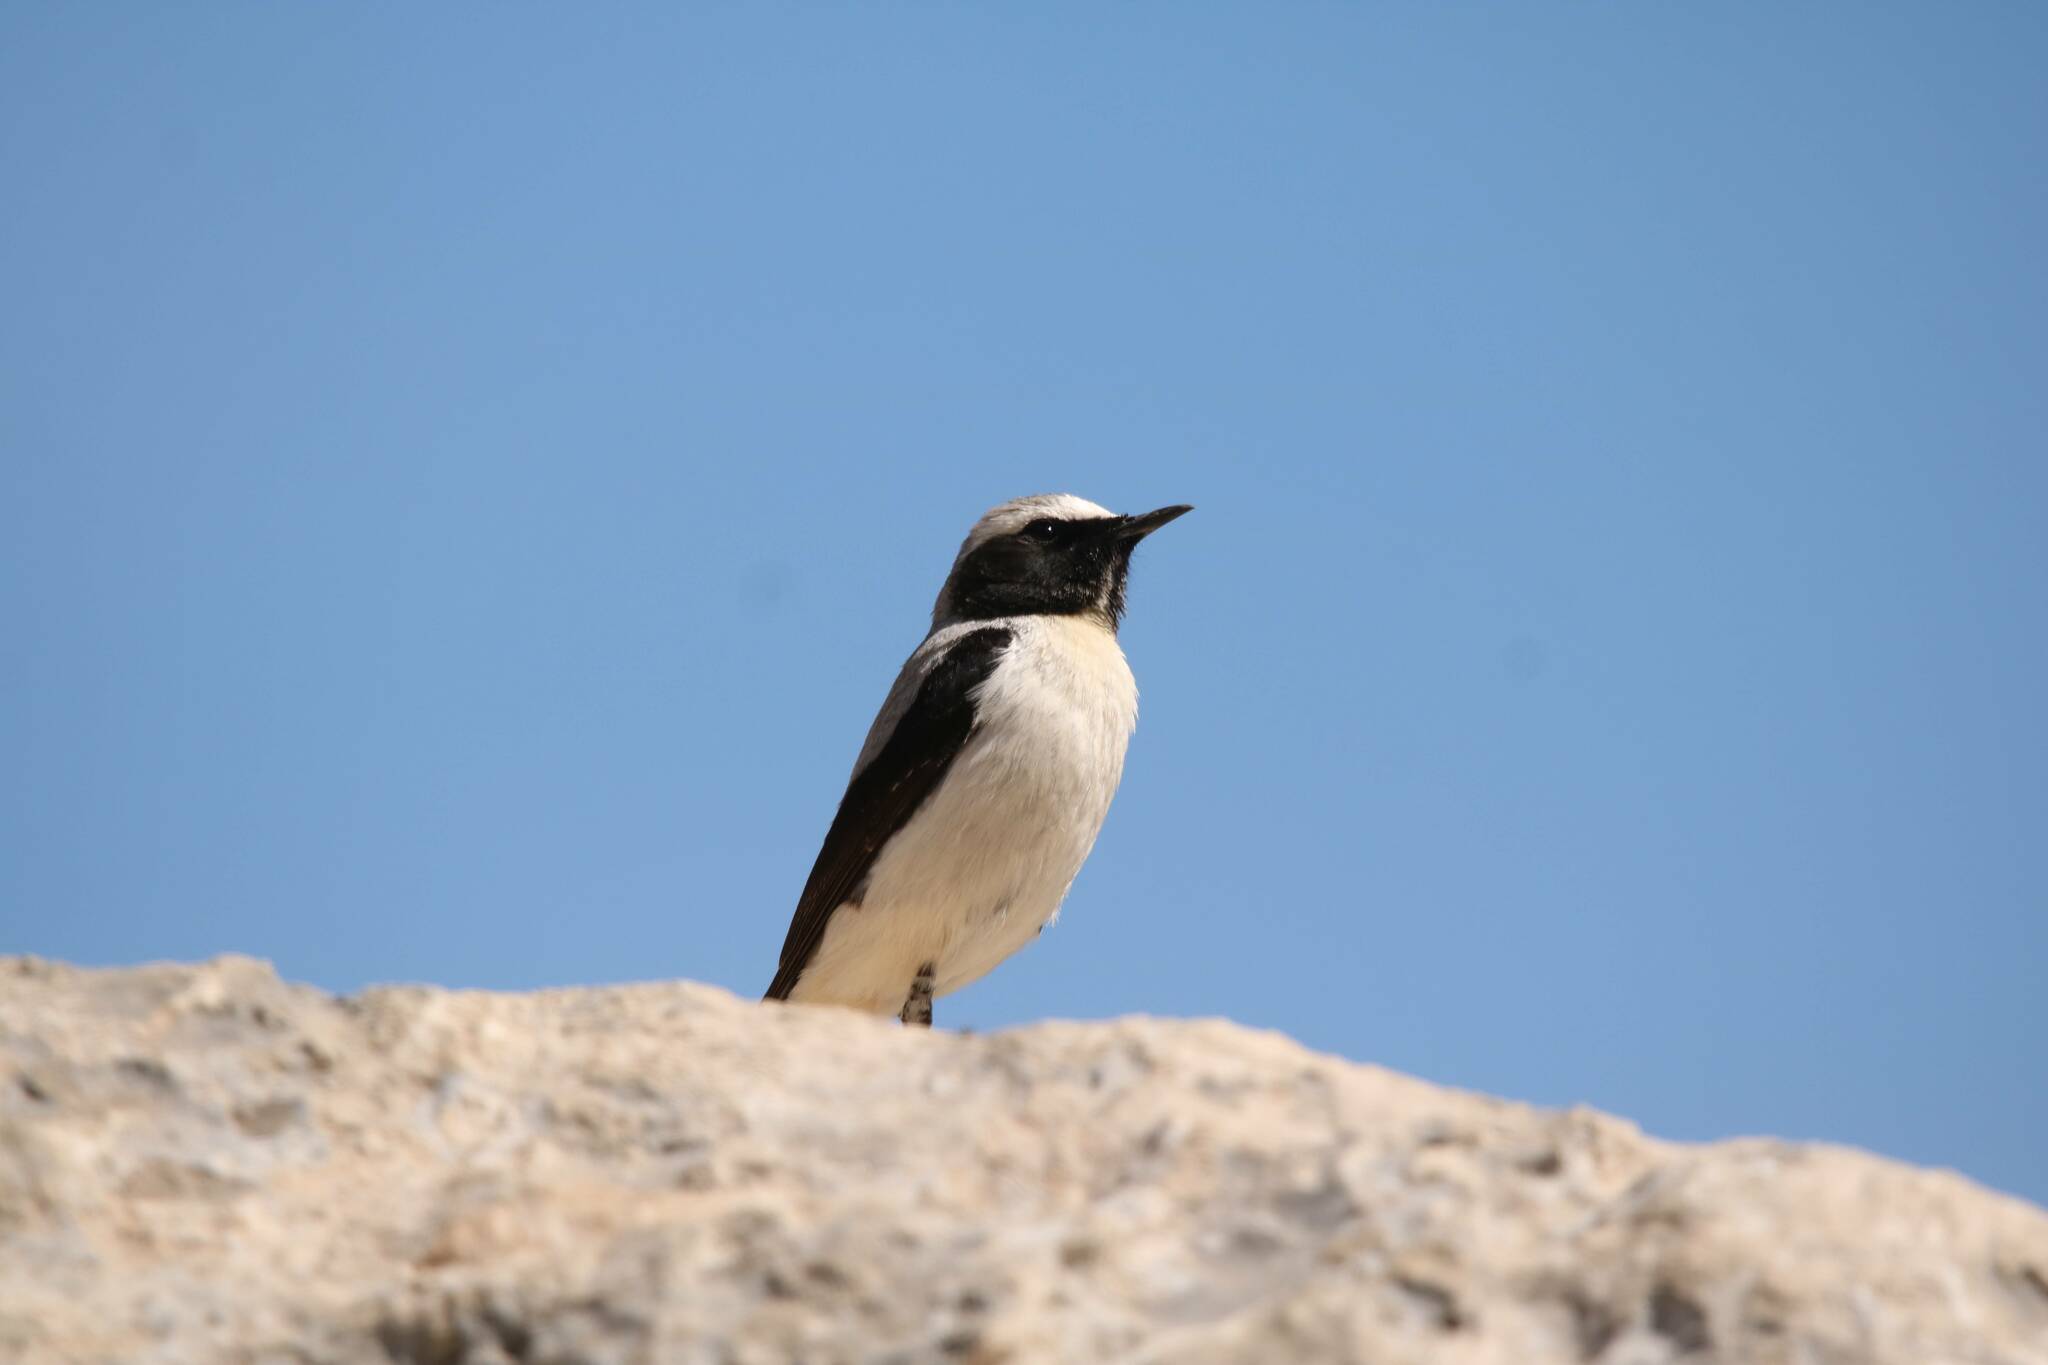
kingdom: Animalia
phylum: Chordata
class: Aves
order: Passeriformes
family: Muscicapidae
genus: Oenanthe
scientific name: Oenanthe oenanthe
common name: Northern wheatear
